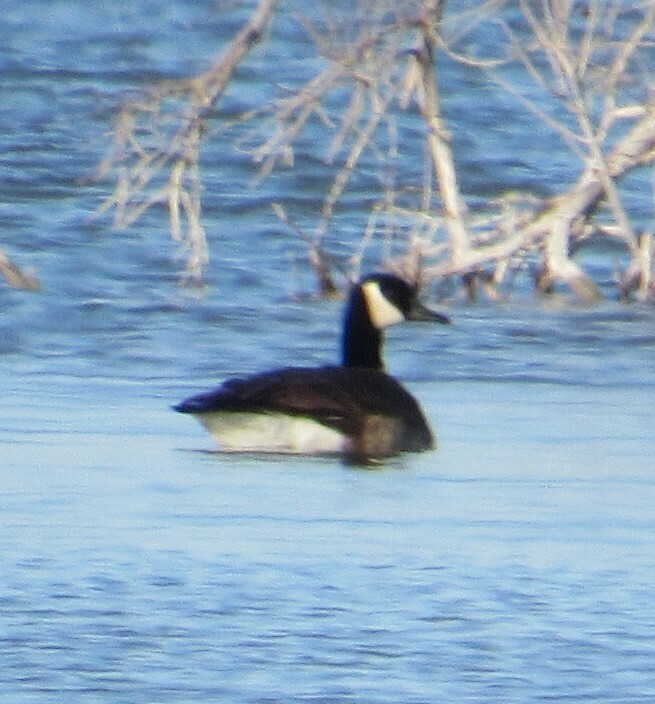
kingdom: Animalia
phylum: Chordata
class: Aves
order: Anseriformes
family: Anatidae
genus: Branta
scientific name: Branta canadensis
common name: Canada goose
